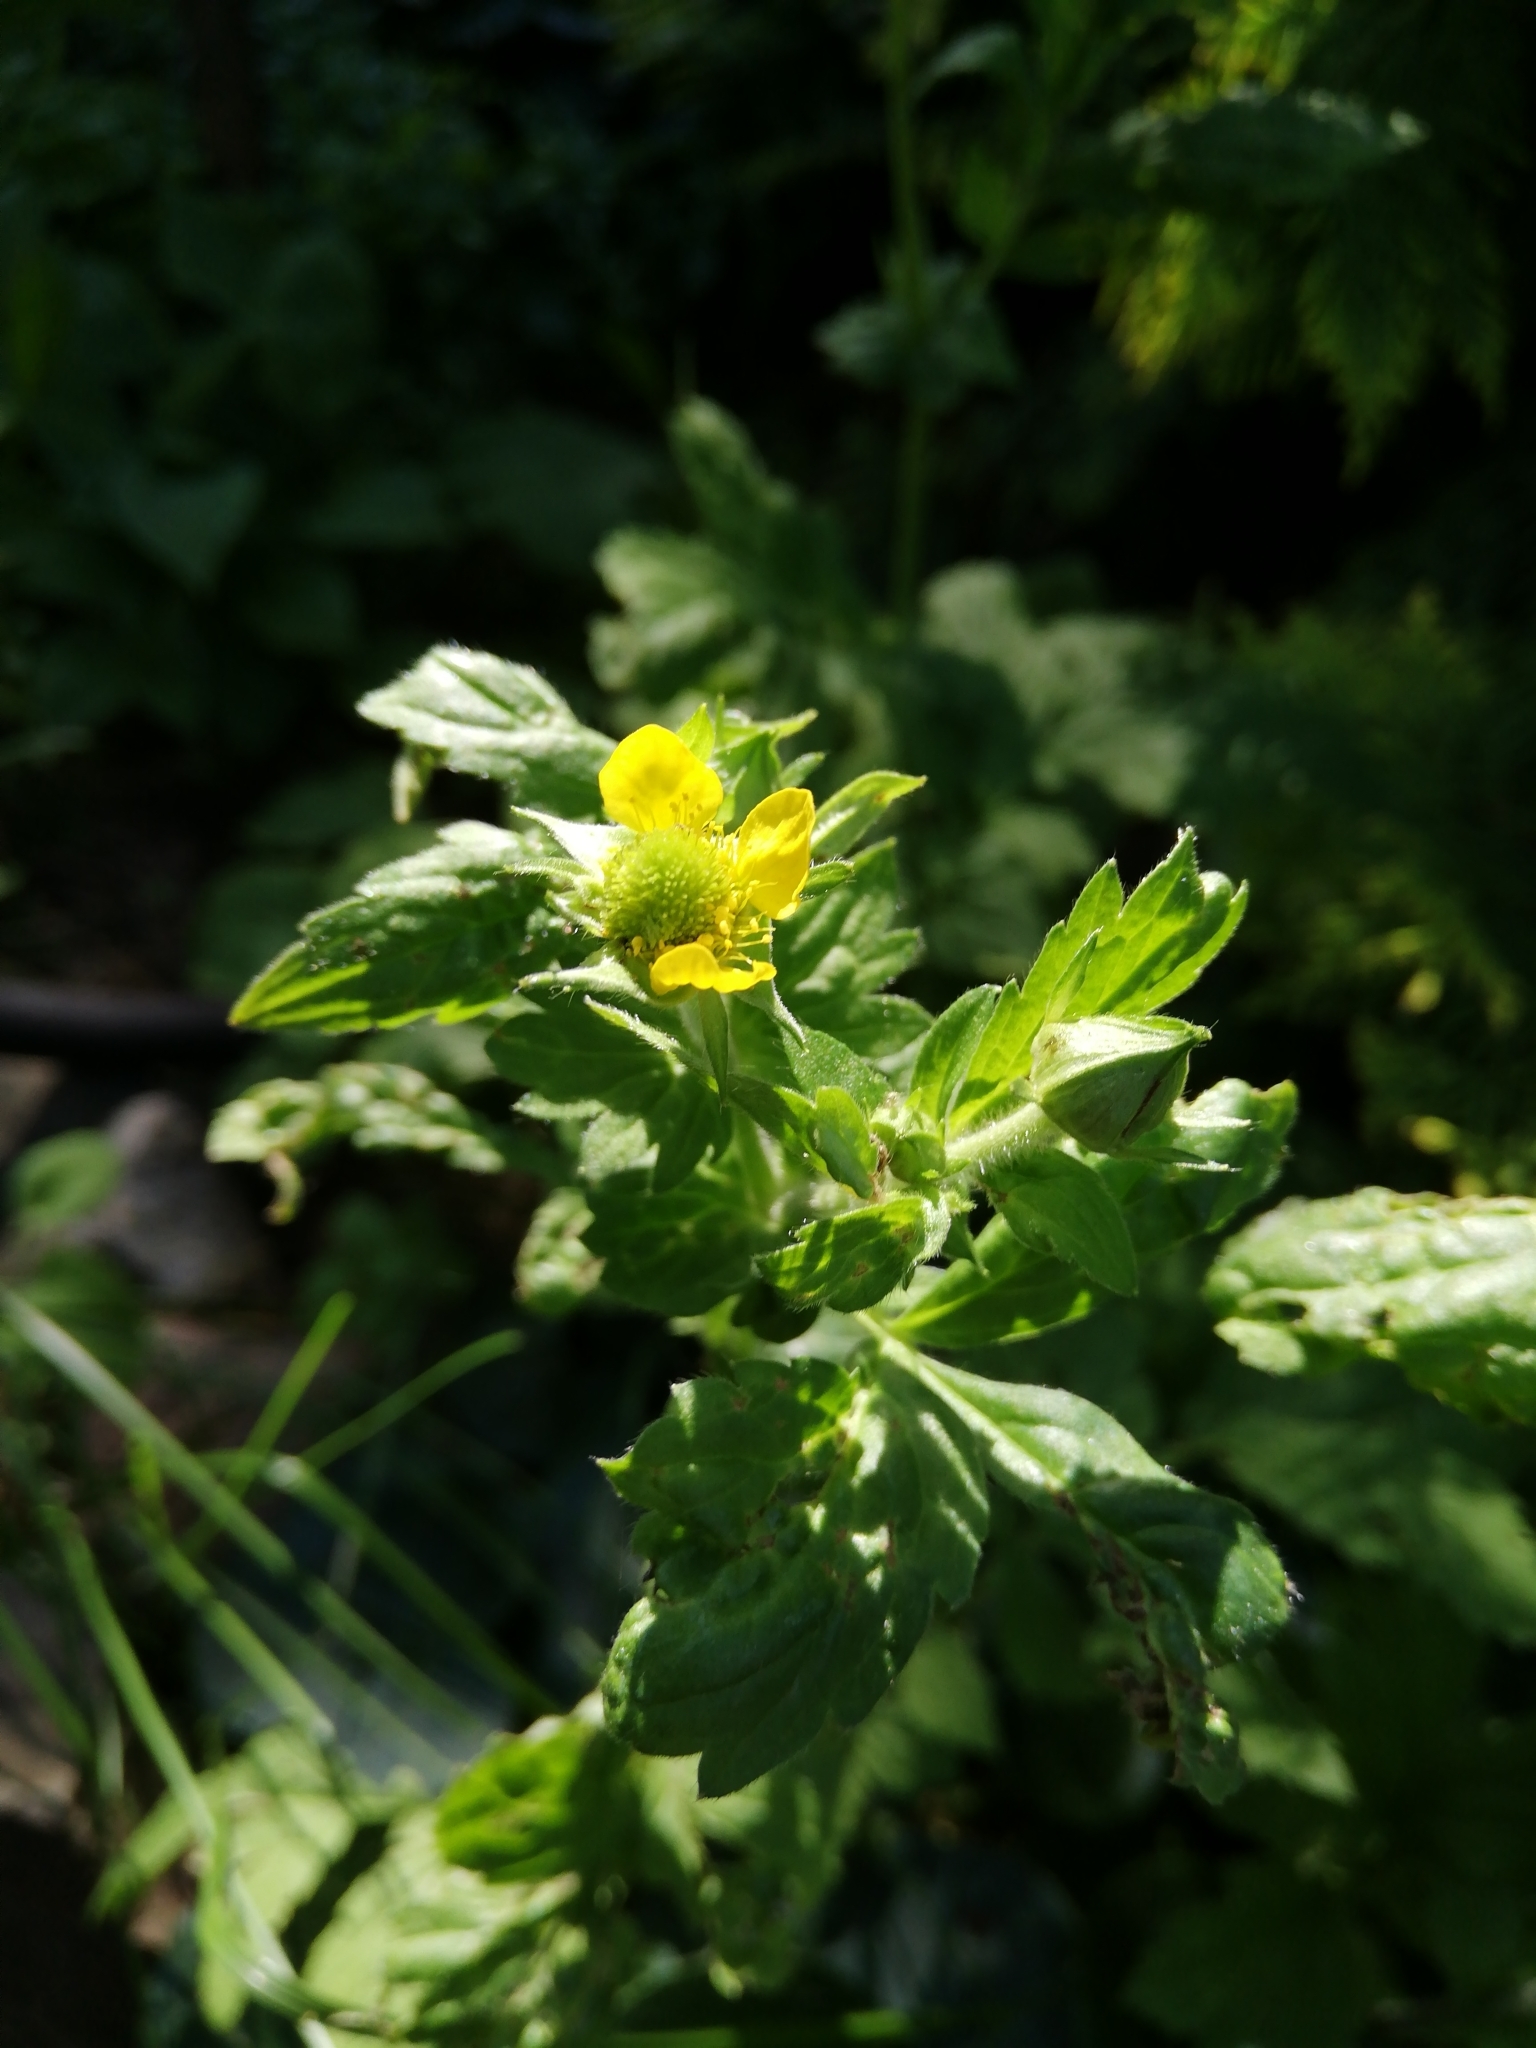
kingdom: Plantae
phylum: Tracheophyta
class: Magnoliopsida
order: Rosales
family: Rosaceae
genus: Geum
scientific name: Geum aleppicum
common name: Yellow avens
